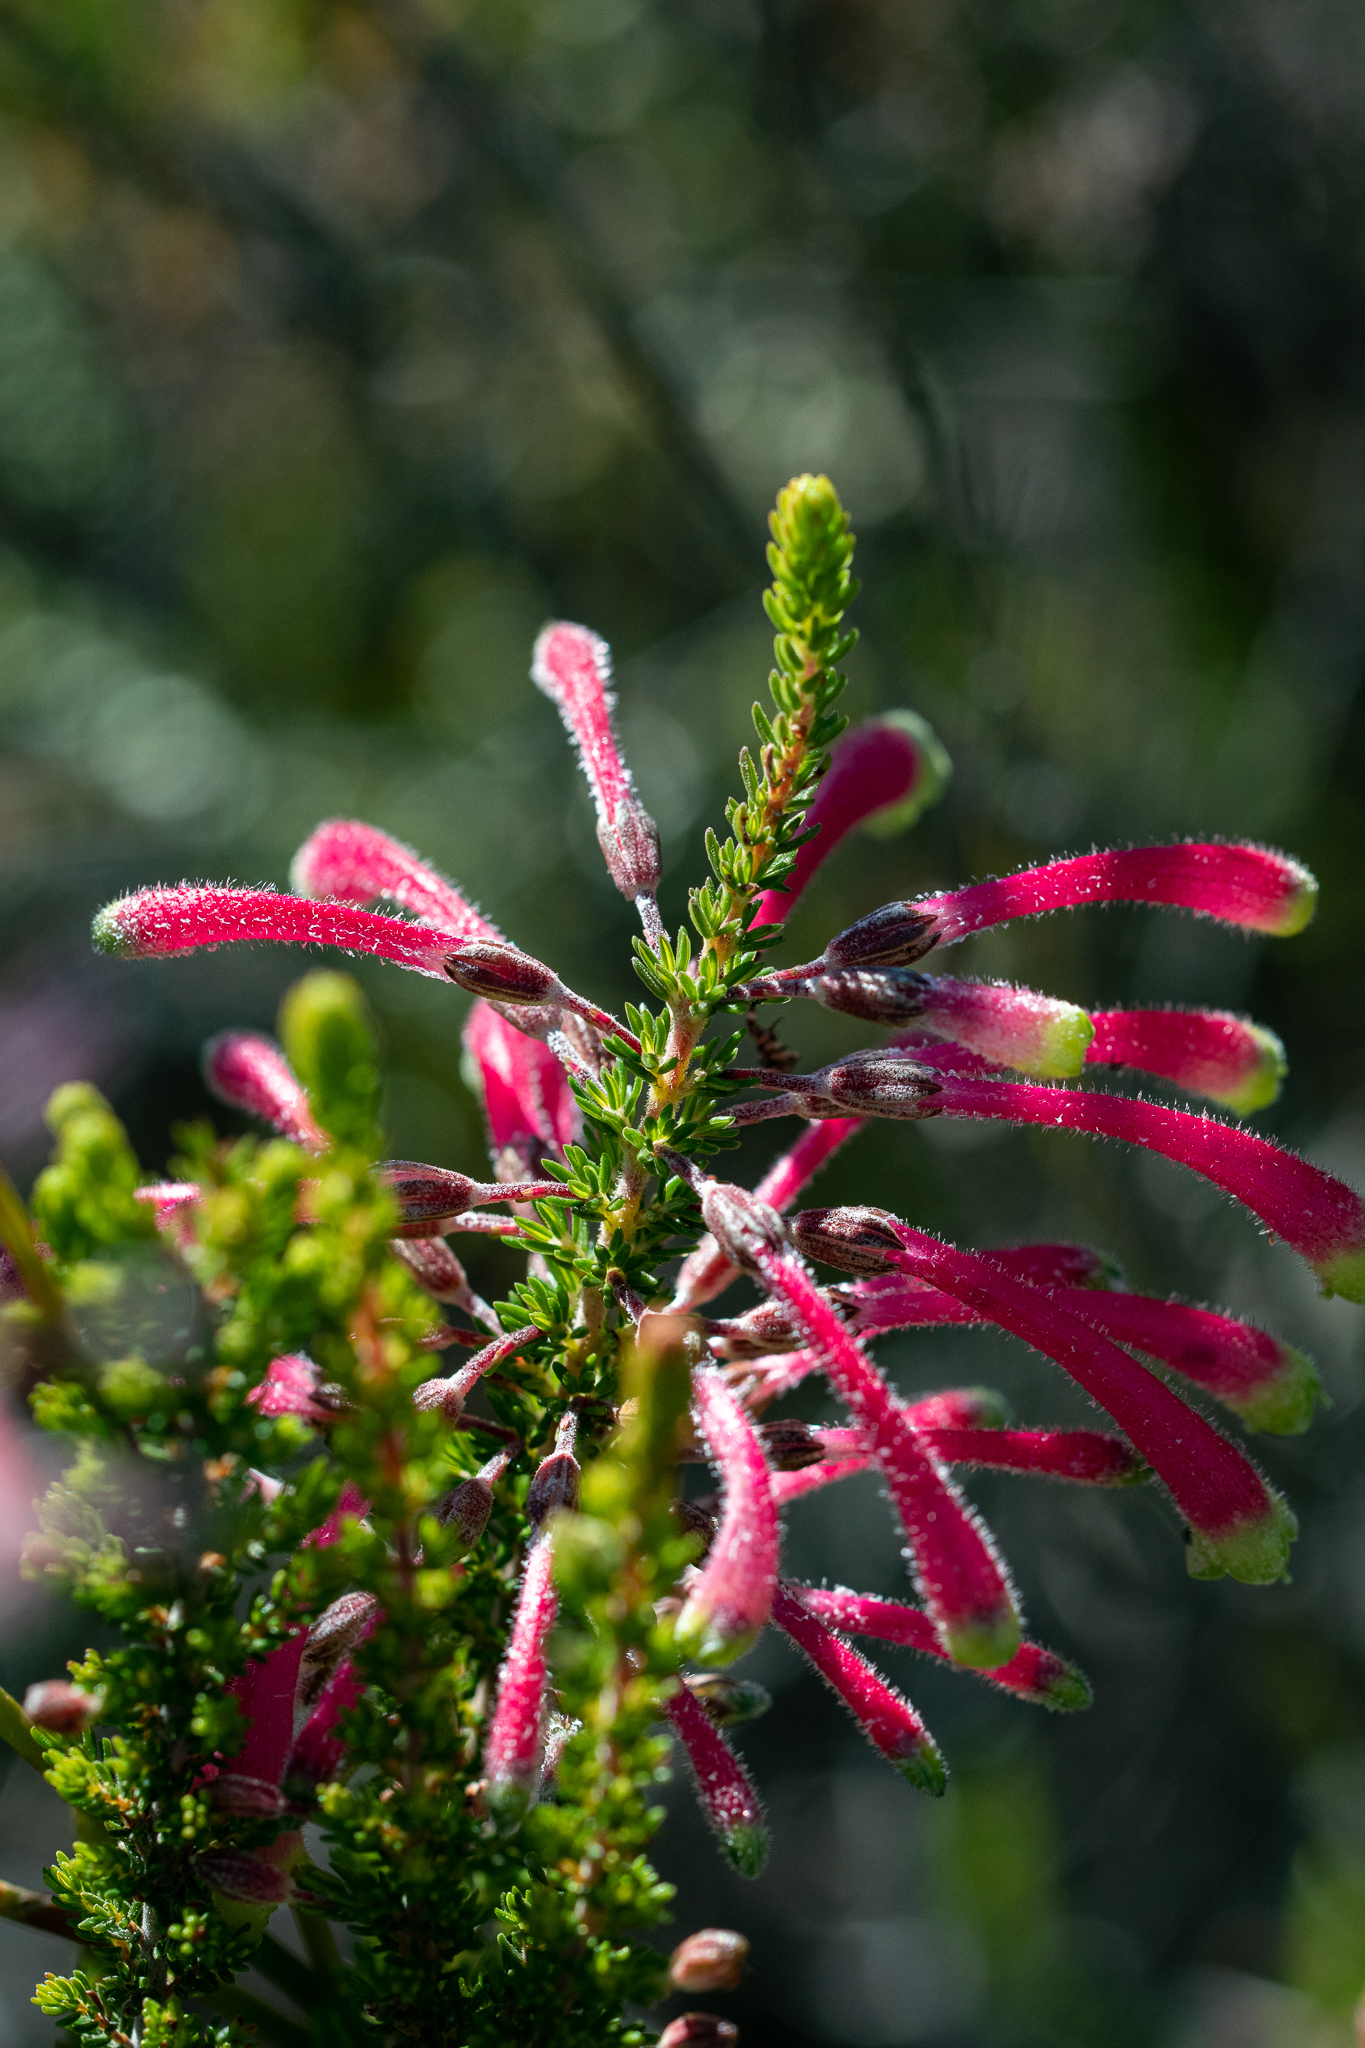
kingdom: Plantae
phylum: Tracheophyta
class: Magnoliopsida
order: Ericales
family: Ericaceae
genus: Erica
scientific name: Erica densifolia
